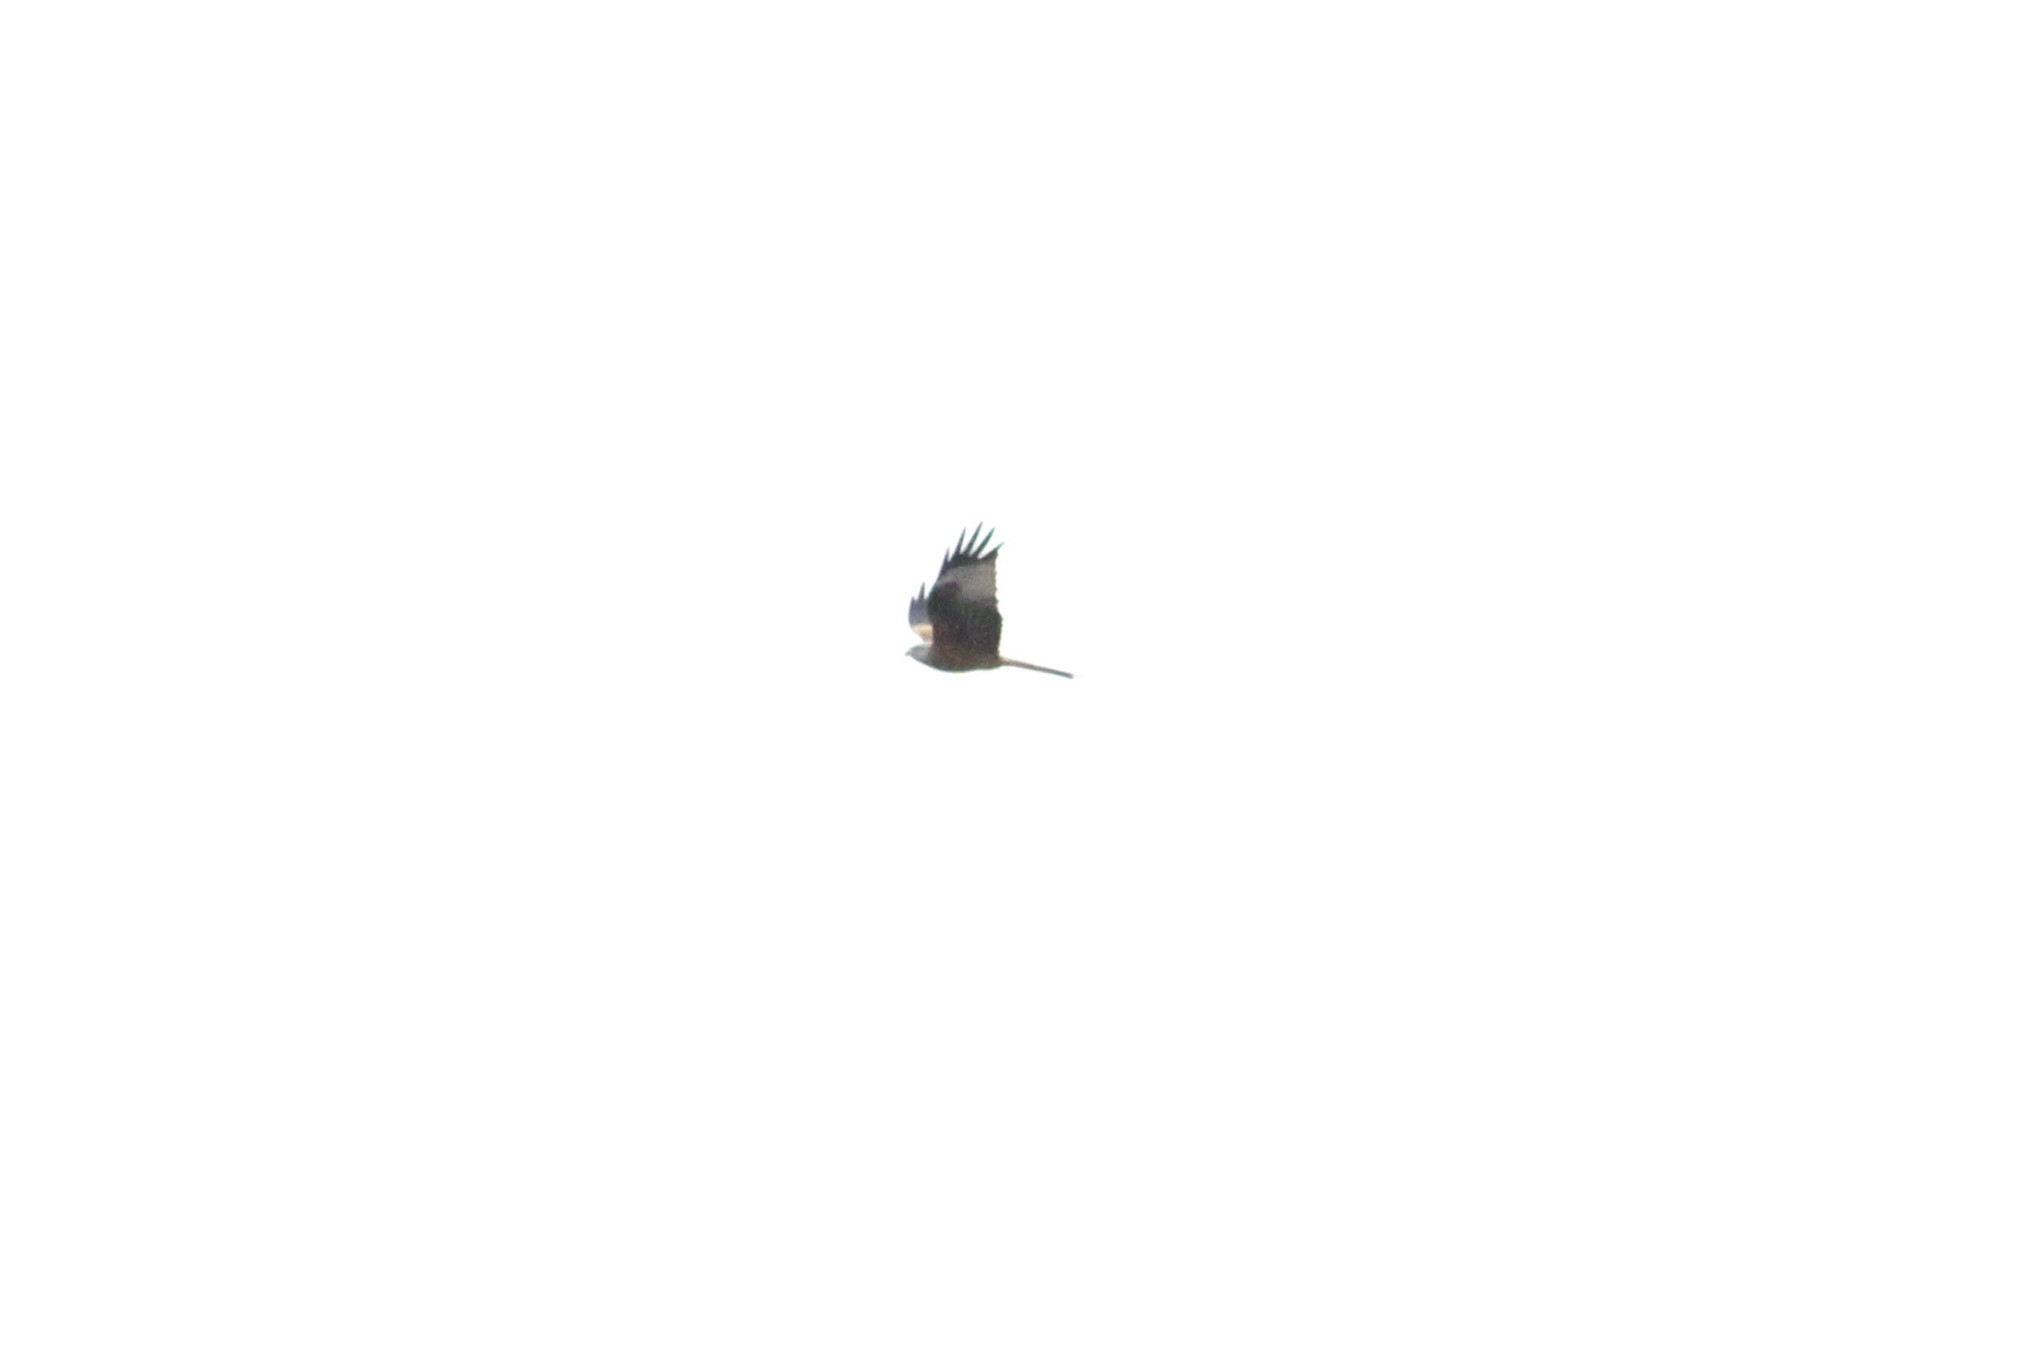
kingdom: Animalia
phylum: Chordata
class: Aves
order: Accipitriformes
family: Accipitridae
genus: Milvus
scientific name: Milvus milvus
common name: Red kite
